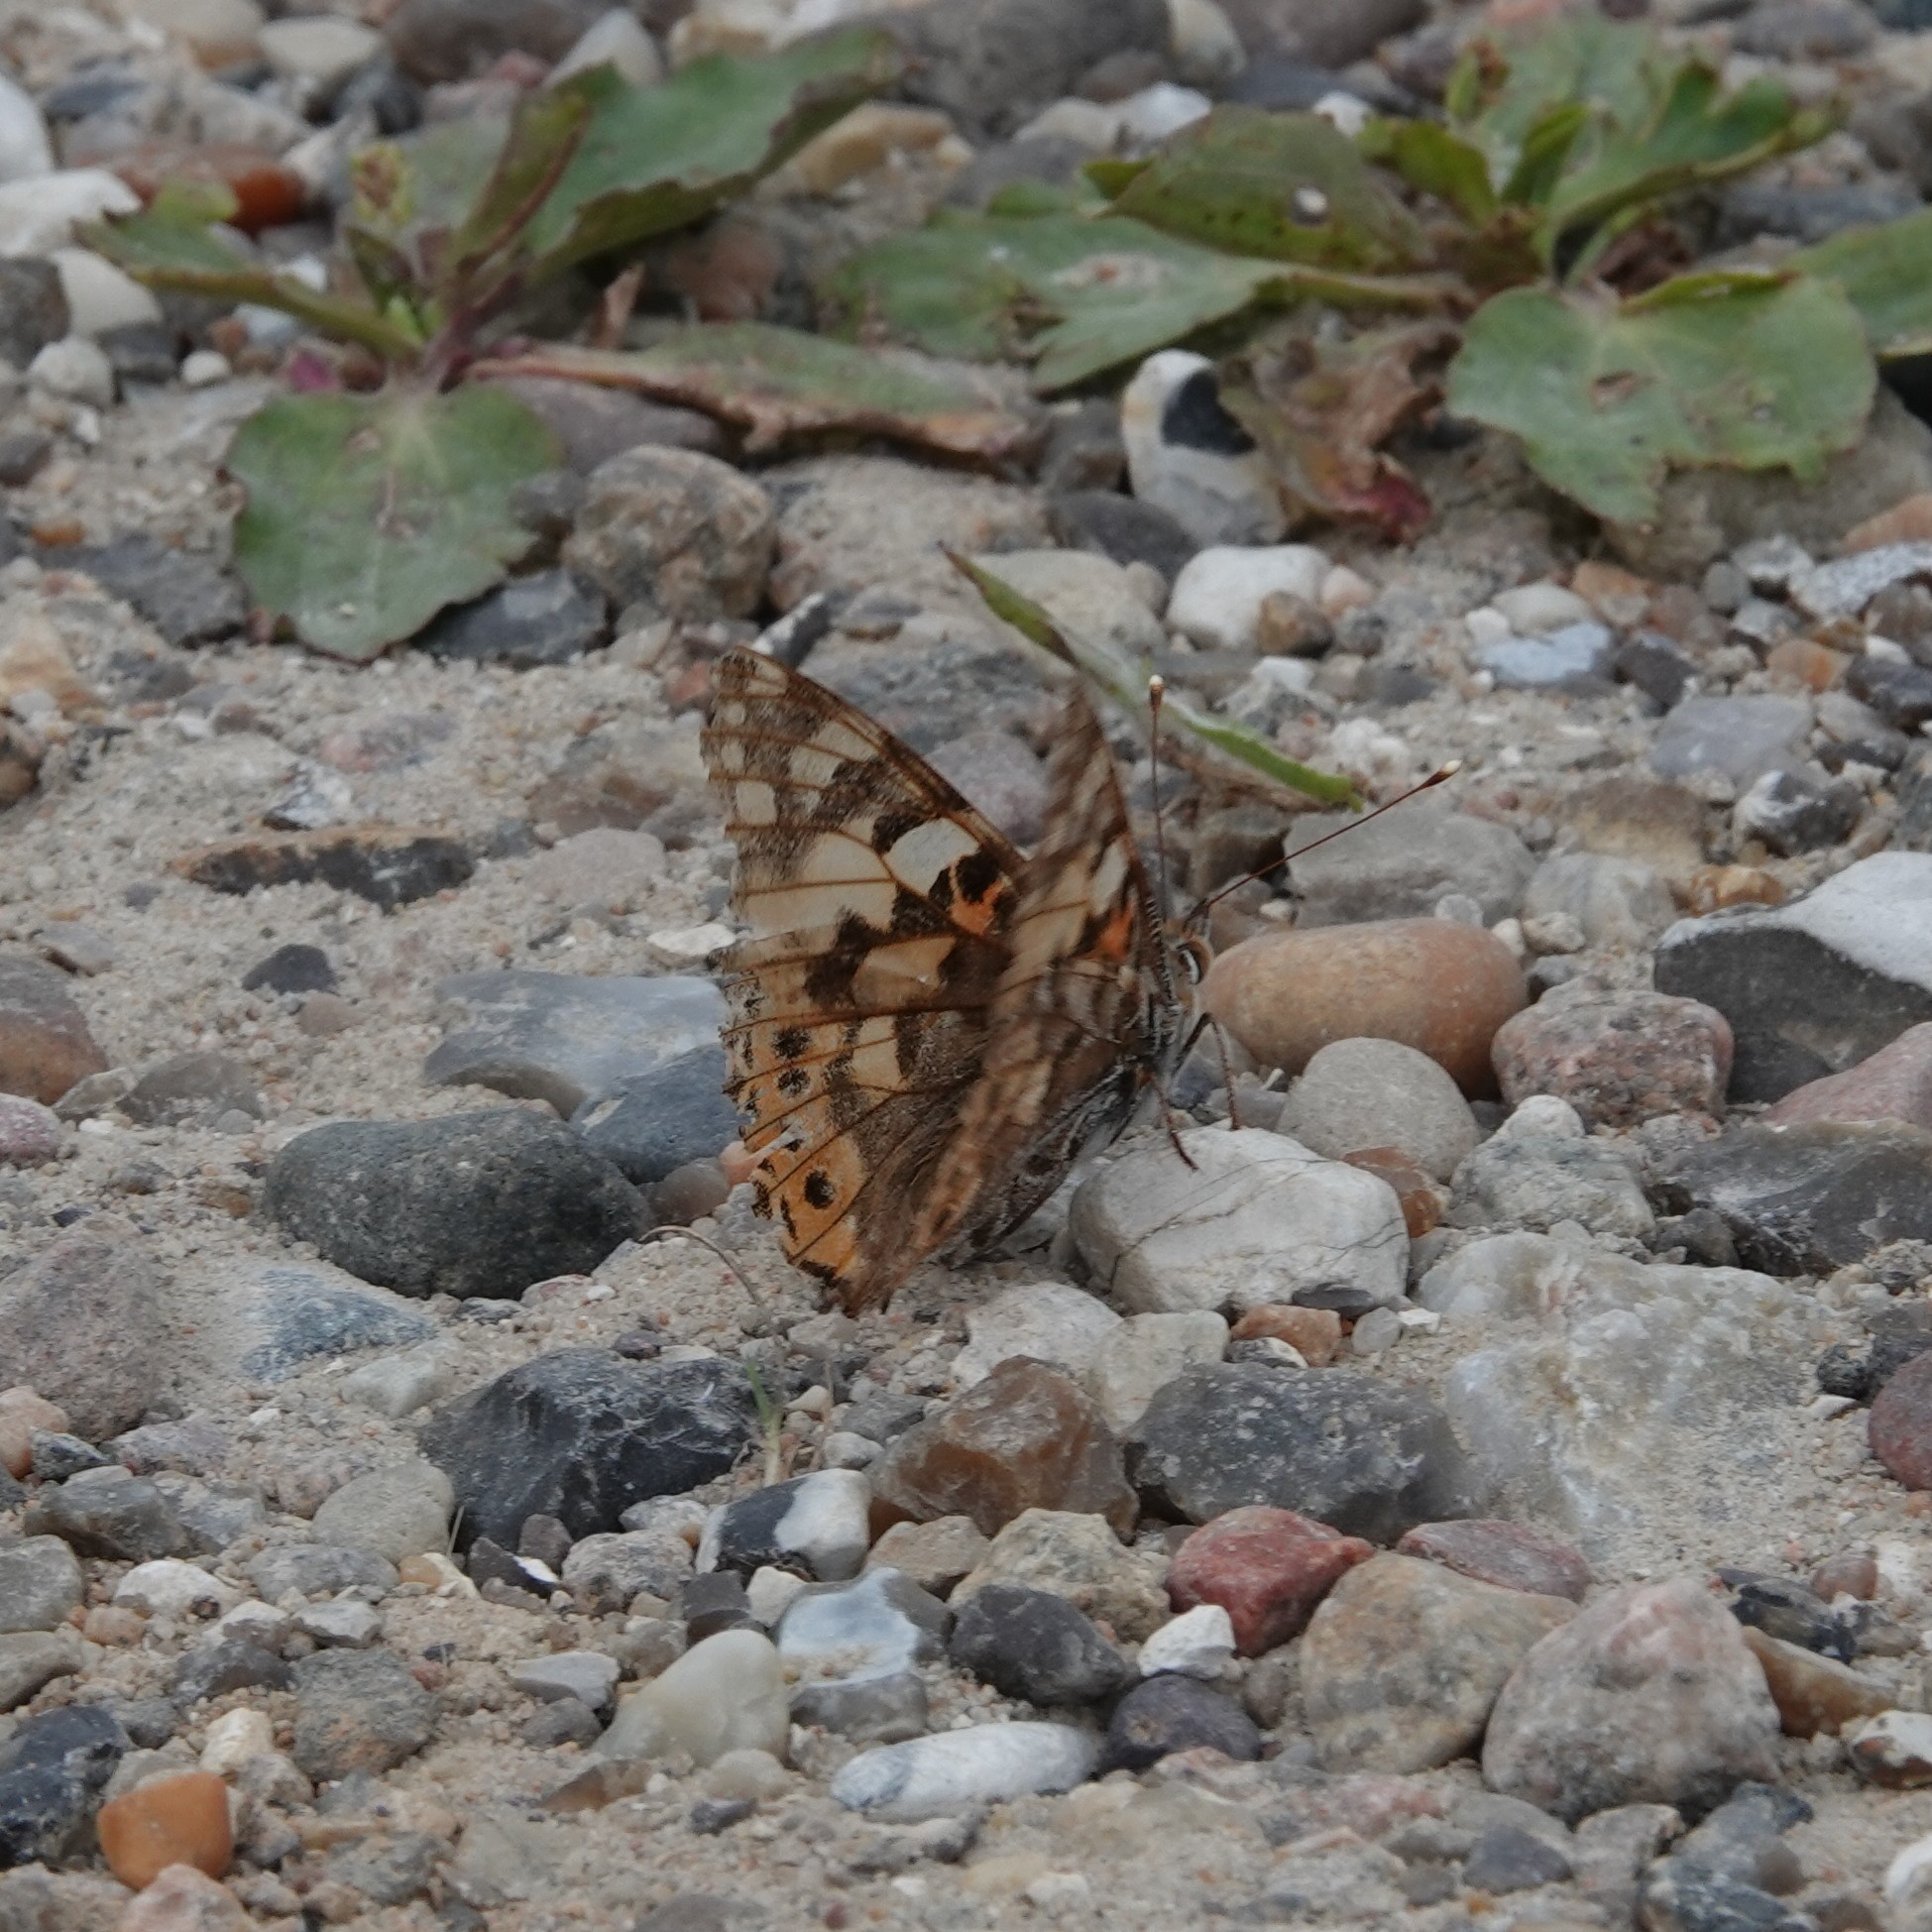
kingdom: Animalia
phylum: Arthropoda
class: Insecta
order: Lepidoptera
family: Nymphalidae
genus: Vanessa
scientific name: Vanessa cardui
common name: Painted lady
